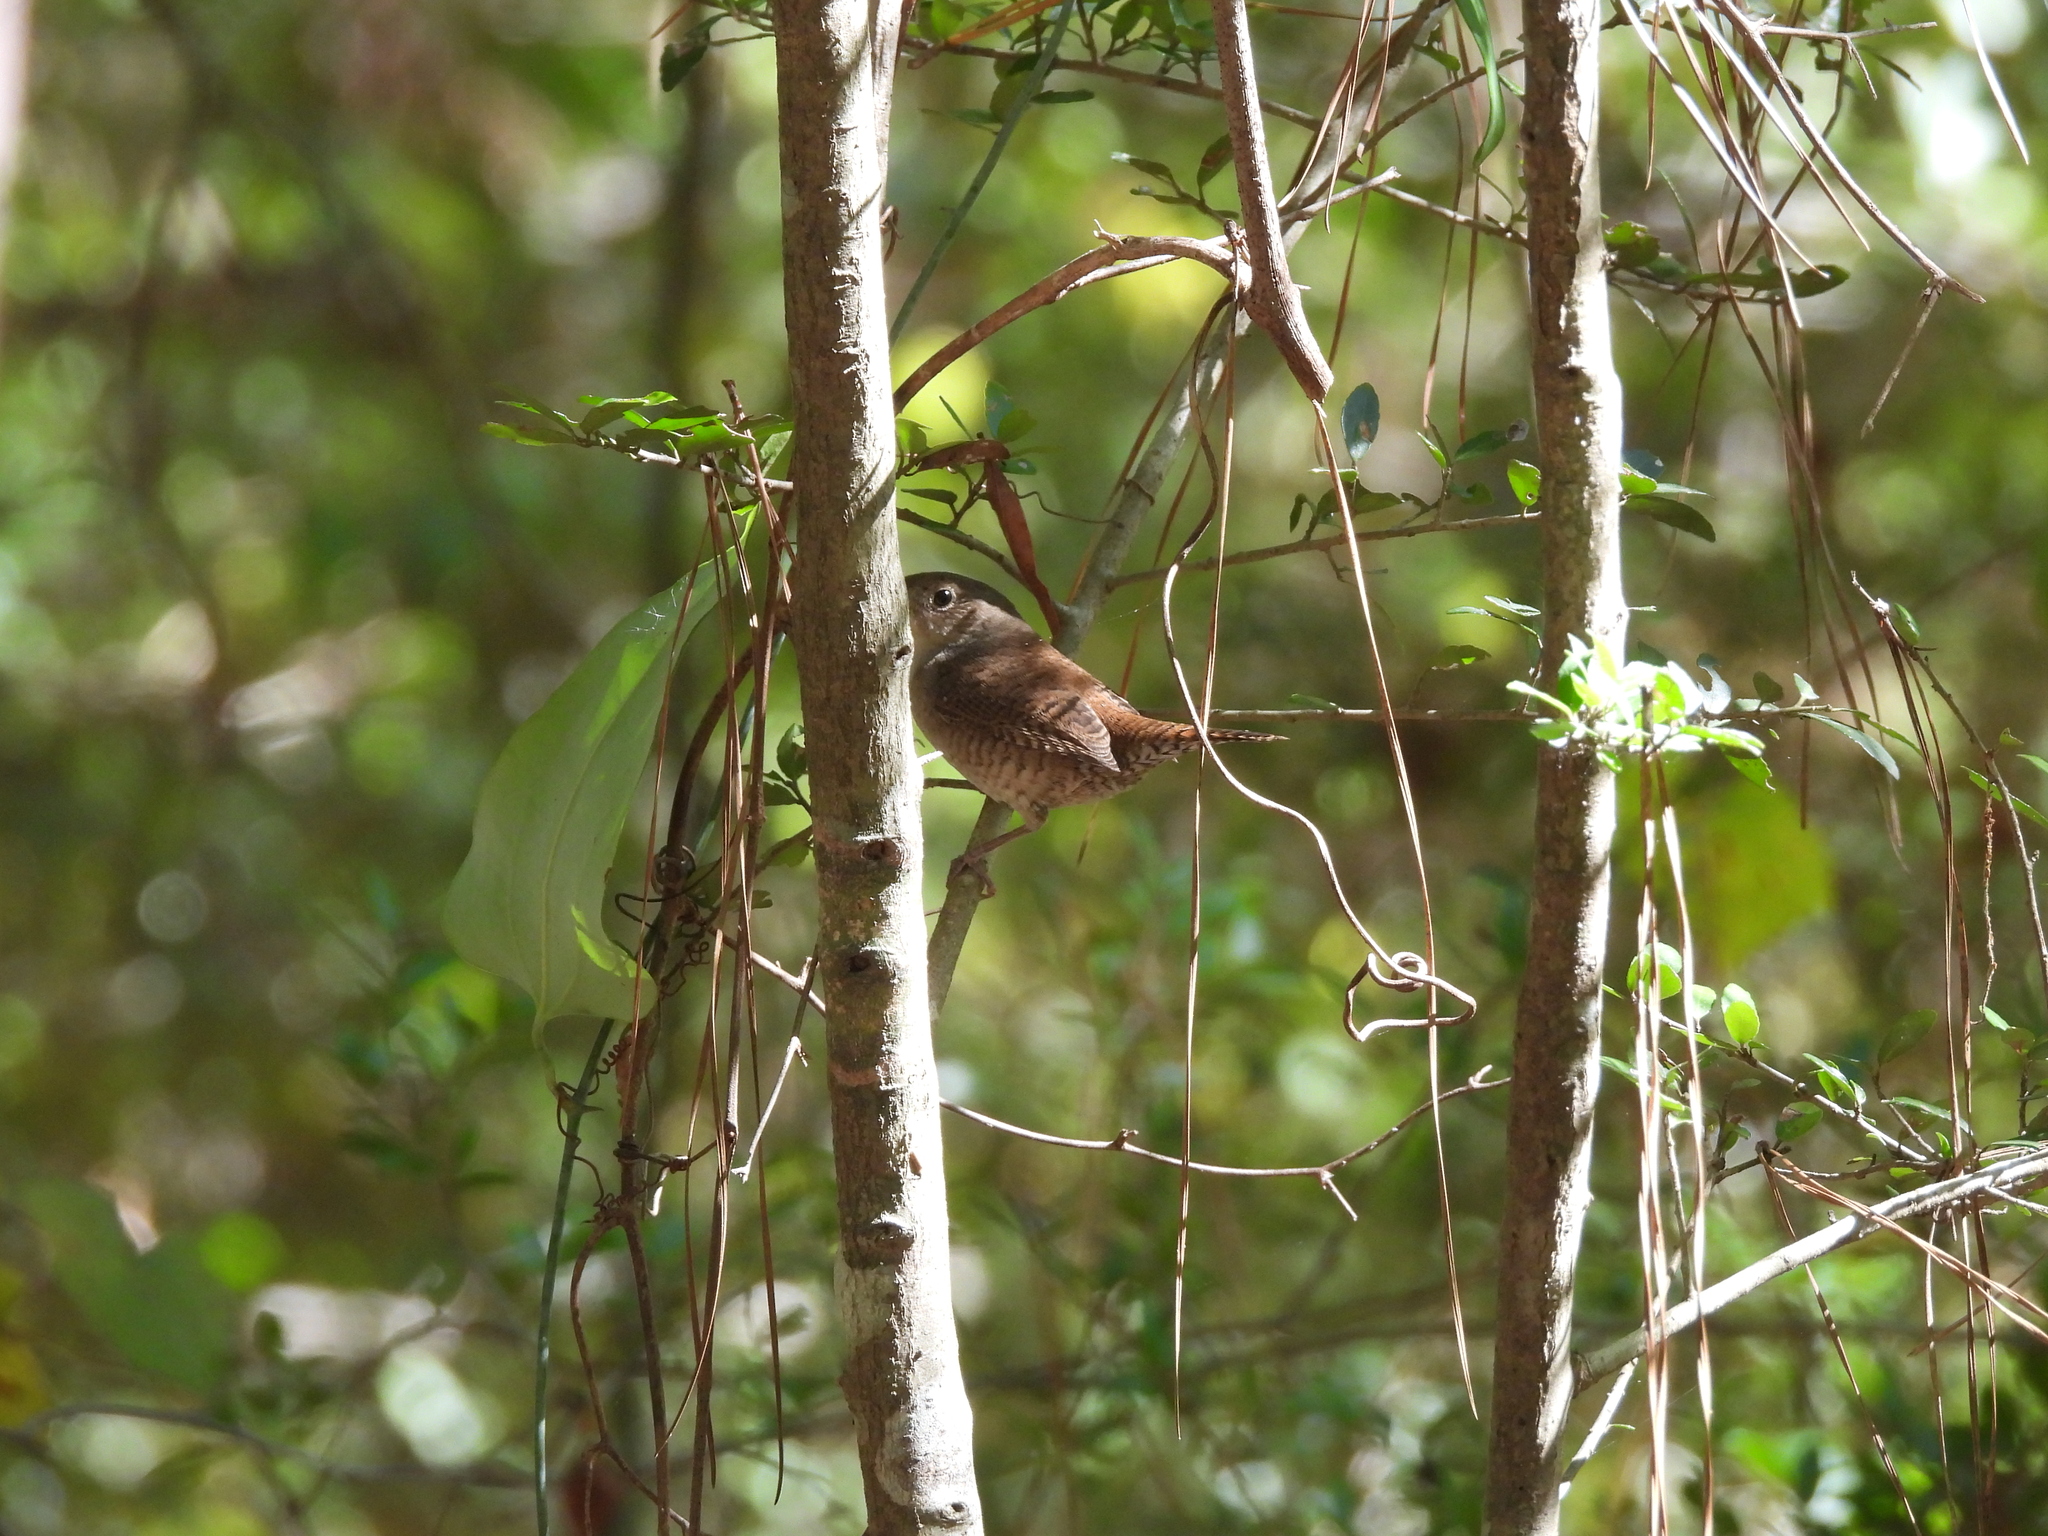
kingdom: Animalia
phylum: Chordata
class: Aves
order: Passeriformes
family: Troglodytidae
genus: Troglodytes
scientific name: Troglodytes aedon
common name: House wren
